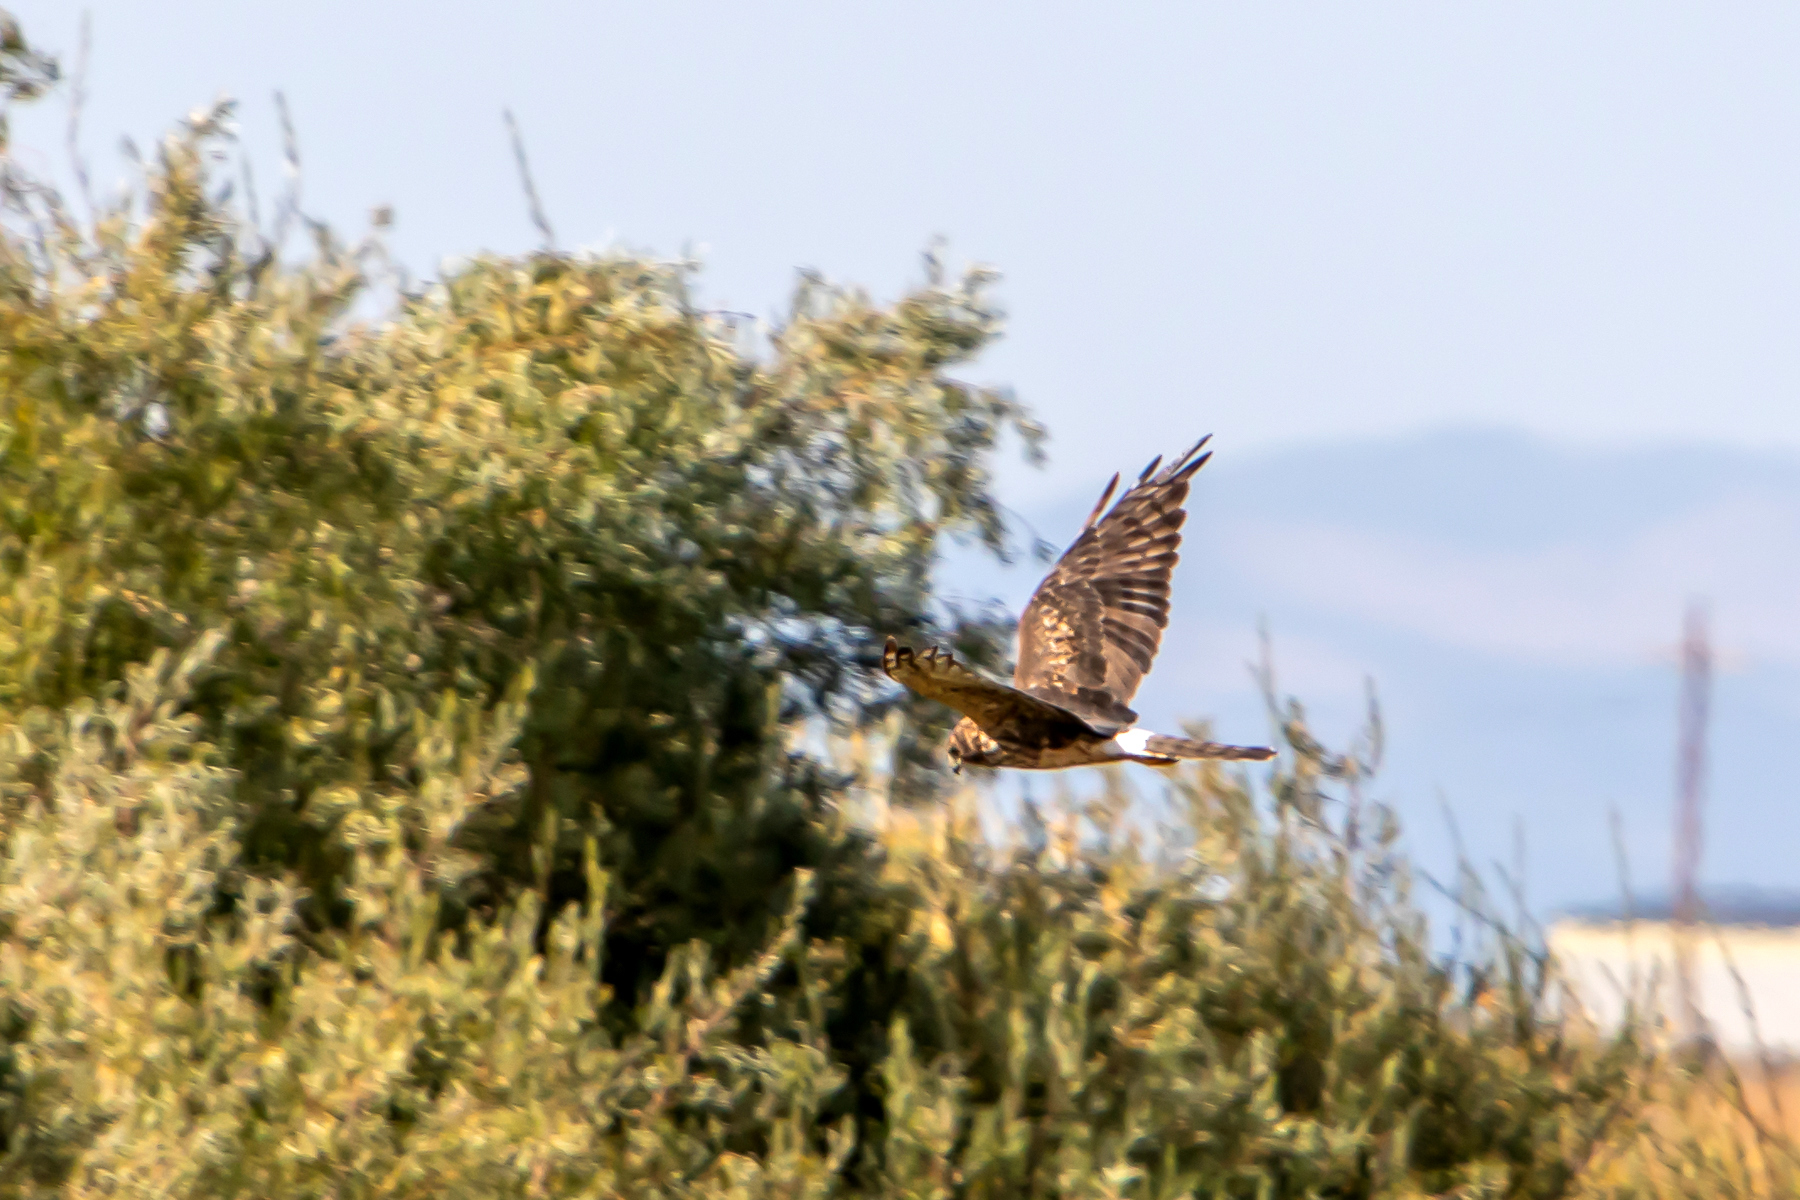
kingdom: Animalia
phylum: Chordata
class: Aves
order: Accipitriformes
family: Accipitridae
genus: Circus
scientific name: Circus cyaneus
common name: Hen harrier
